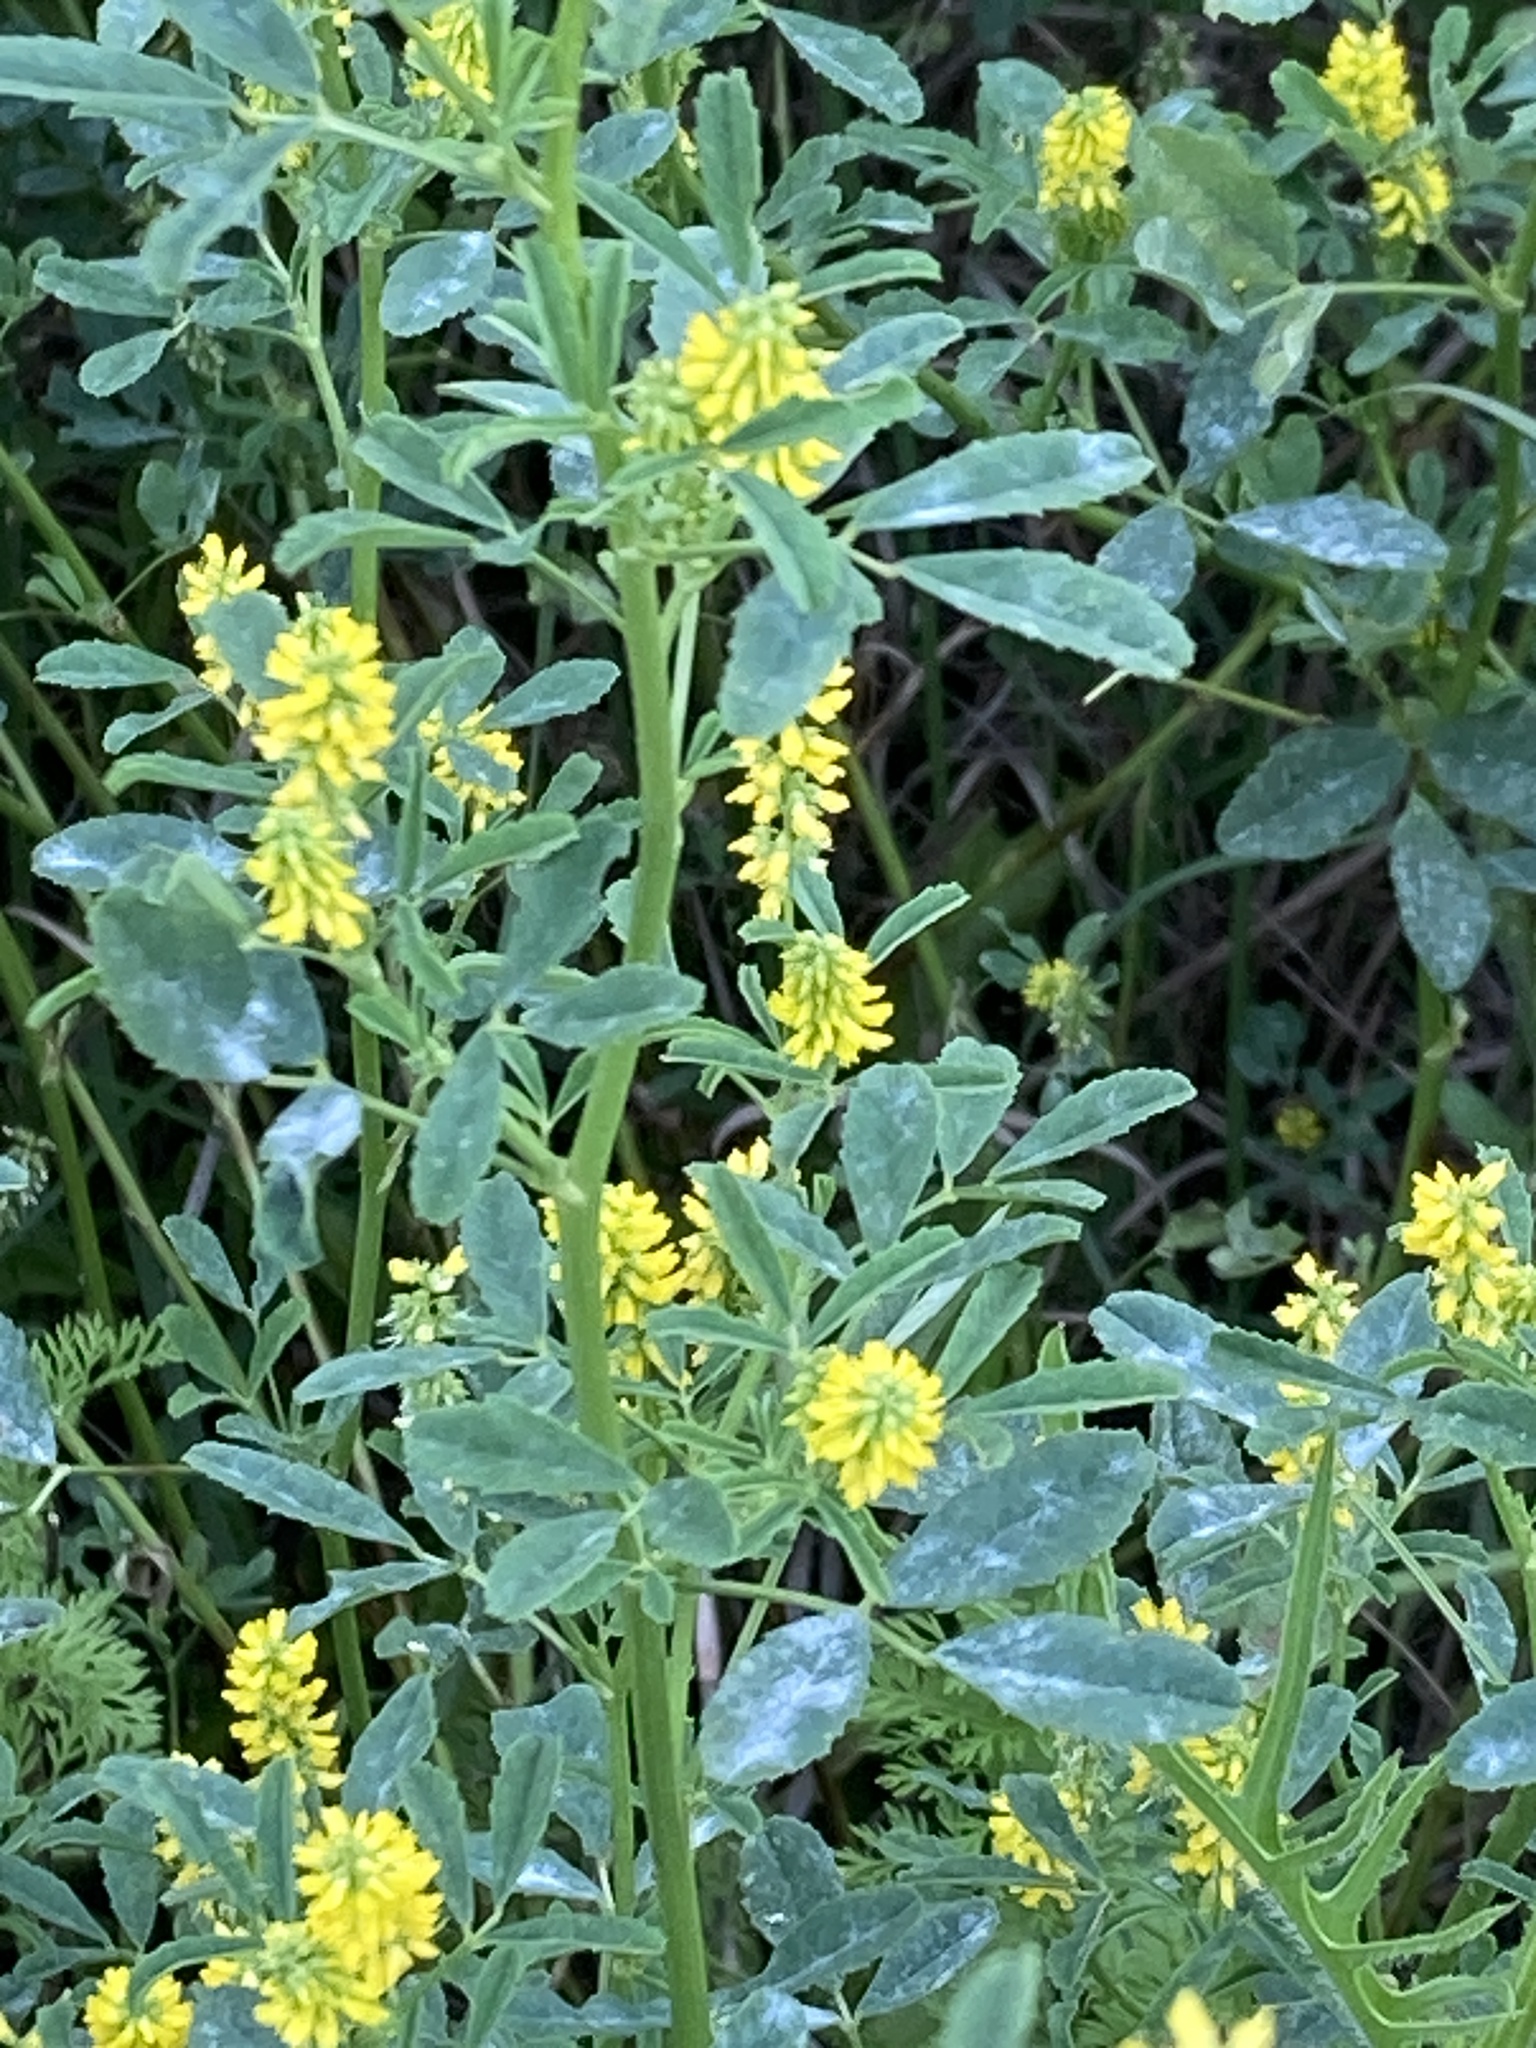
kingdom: Plantae
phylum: Tracheophyta
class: Magnoliopsida
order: Fabales
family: Fabaceae
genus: Melilotus
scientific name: Melilotus indicus
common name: Small melilot
